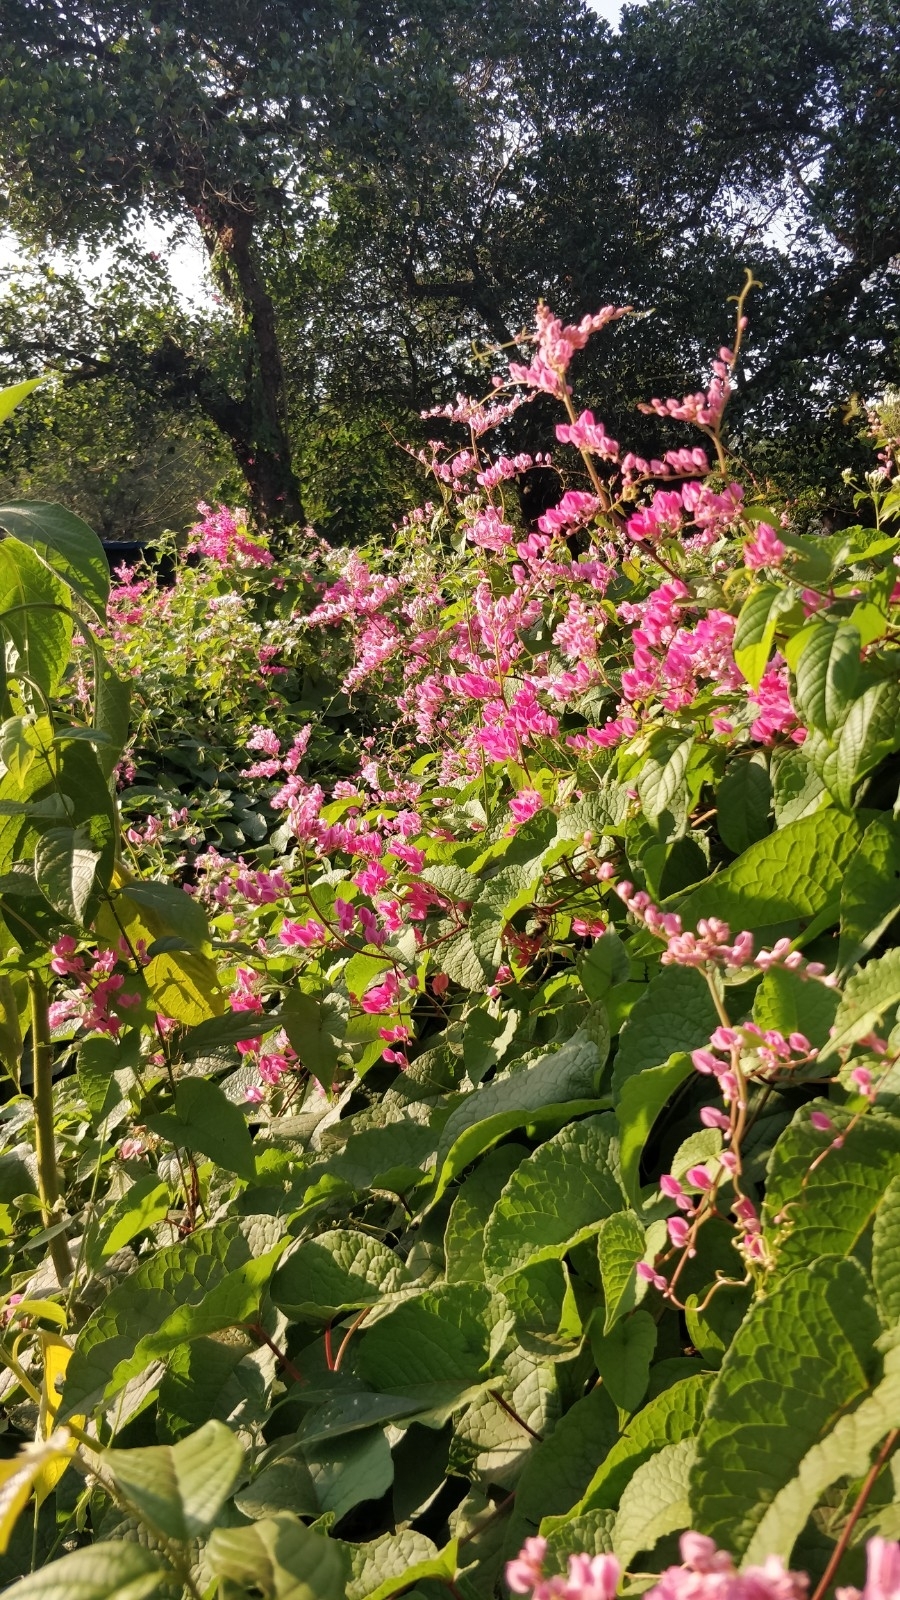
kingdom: Plantae
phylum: Tracheophyta
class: Magnoliopsida
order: Caryophyllales
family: Polygonaceae
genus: Antigonon
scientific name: Antigonon leptopus
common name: Coral vine
